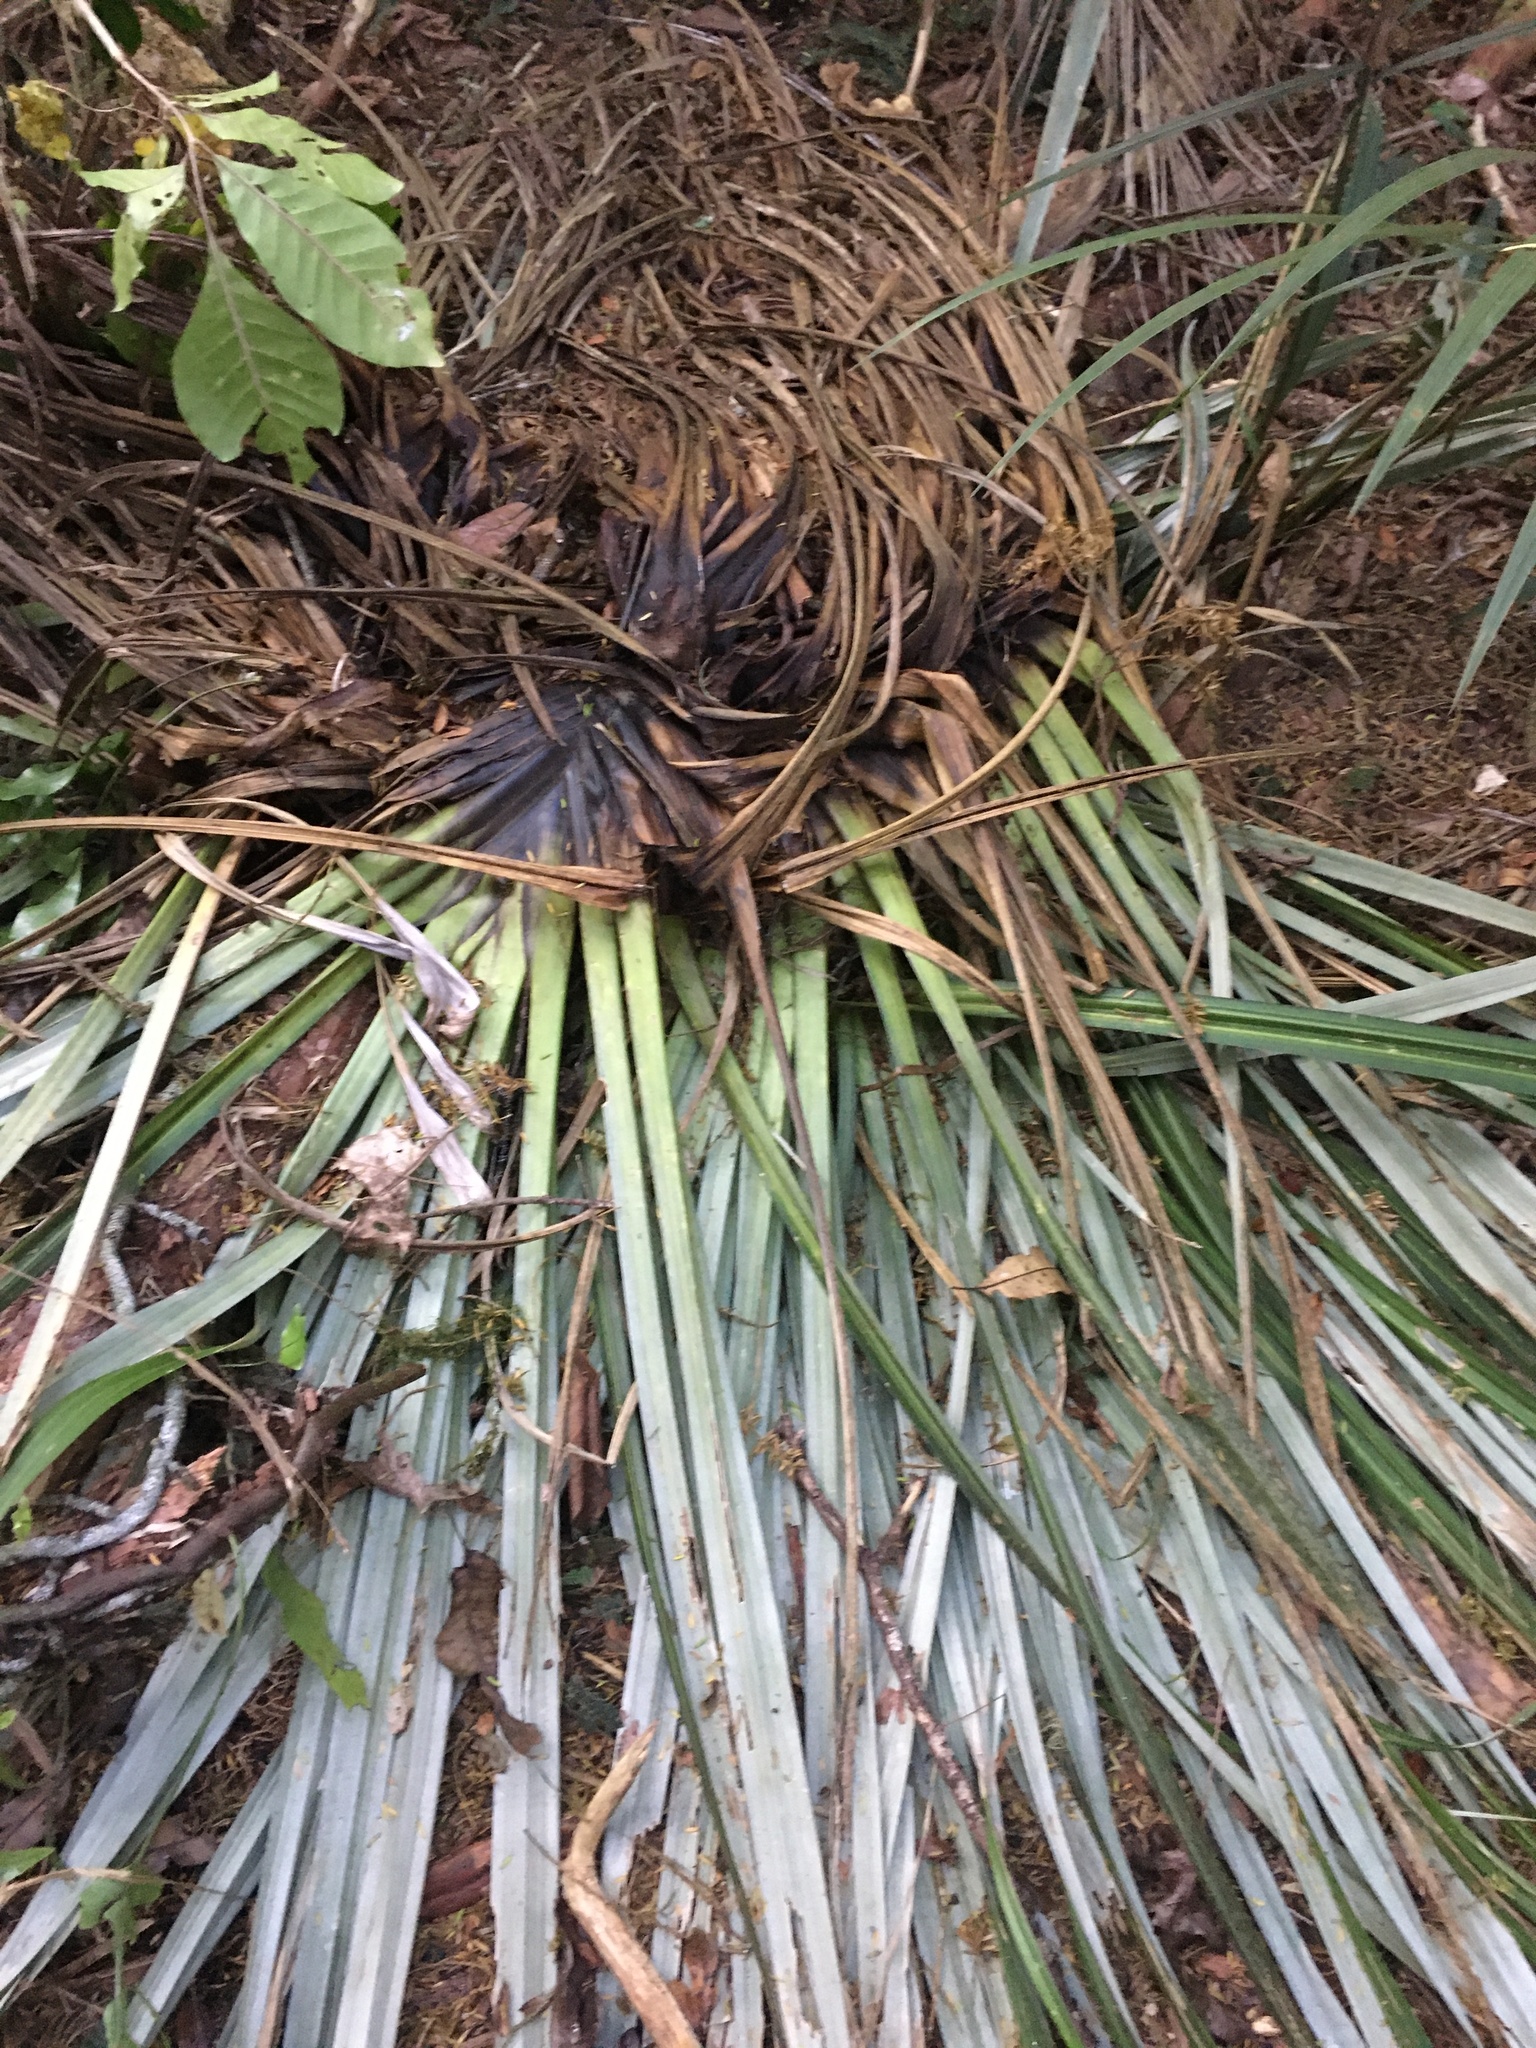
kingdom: Plantae
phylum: Tracheophyta
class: Liliopsida
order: Asparagales
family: Asteliaceae
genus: Astelia
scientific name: Astelia hastata
